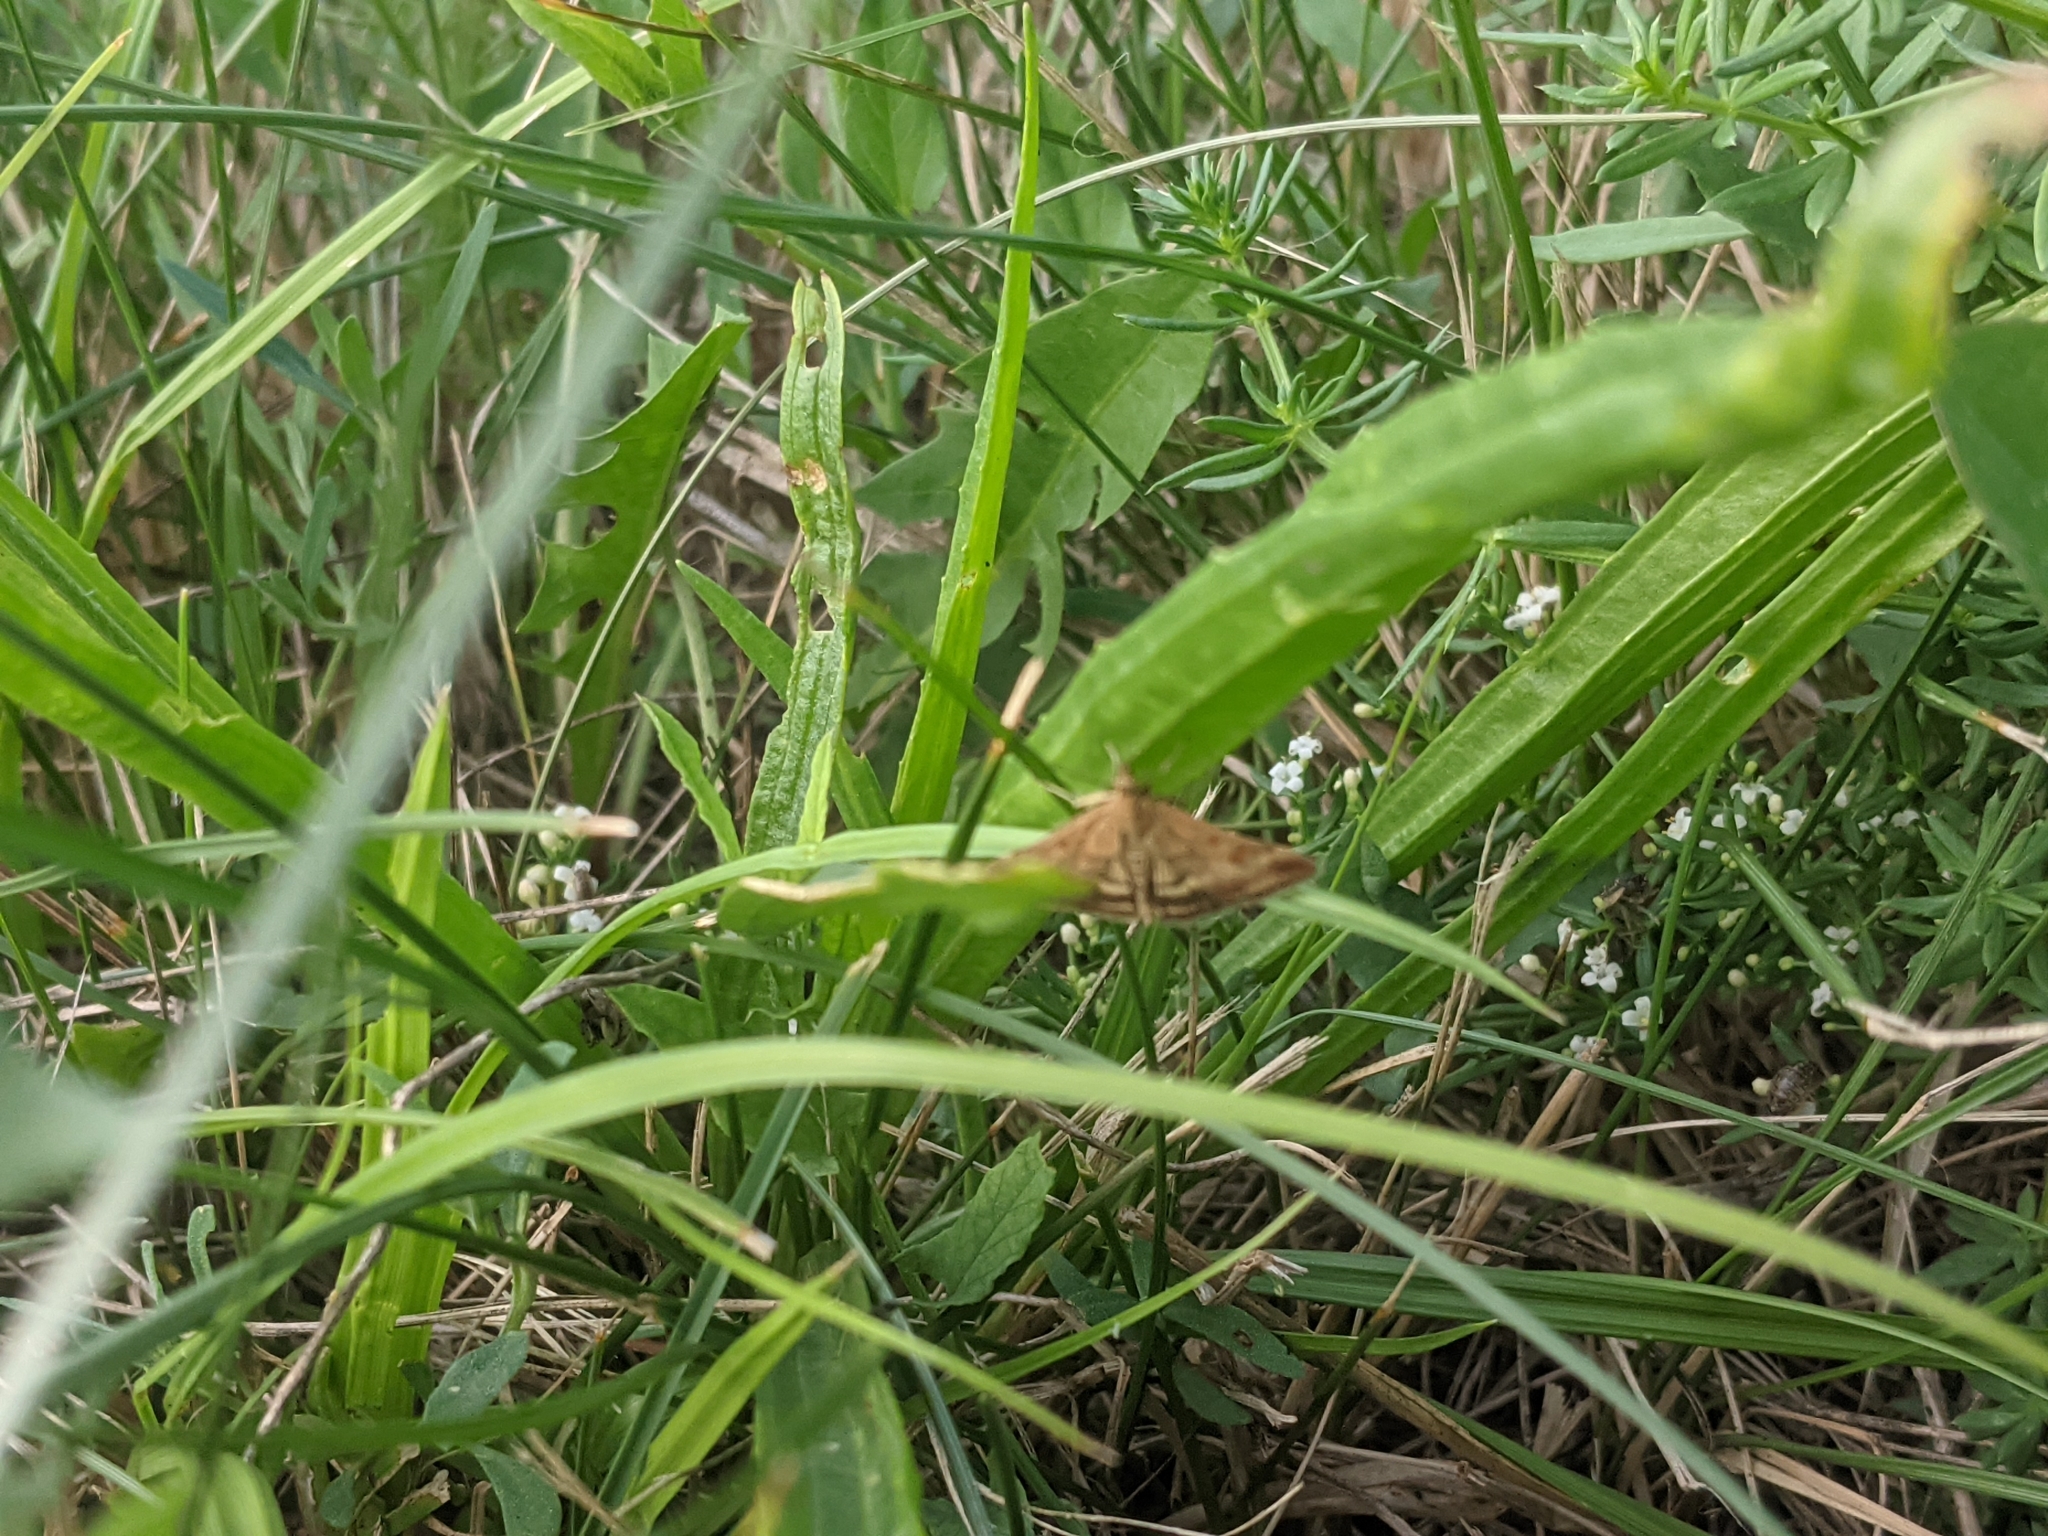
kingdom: Animalia
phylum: Arthropoda
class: Insecta
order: Lepidoptera
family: Crambidae
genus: Pyrausta
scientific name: Pyrausta despicata
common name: Straw-barred pearl
